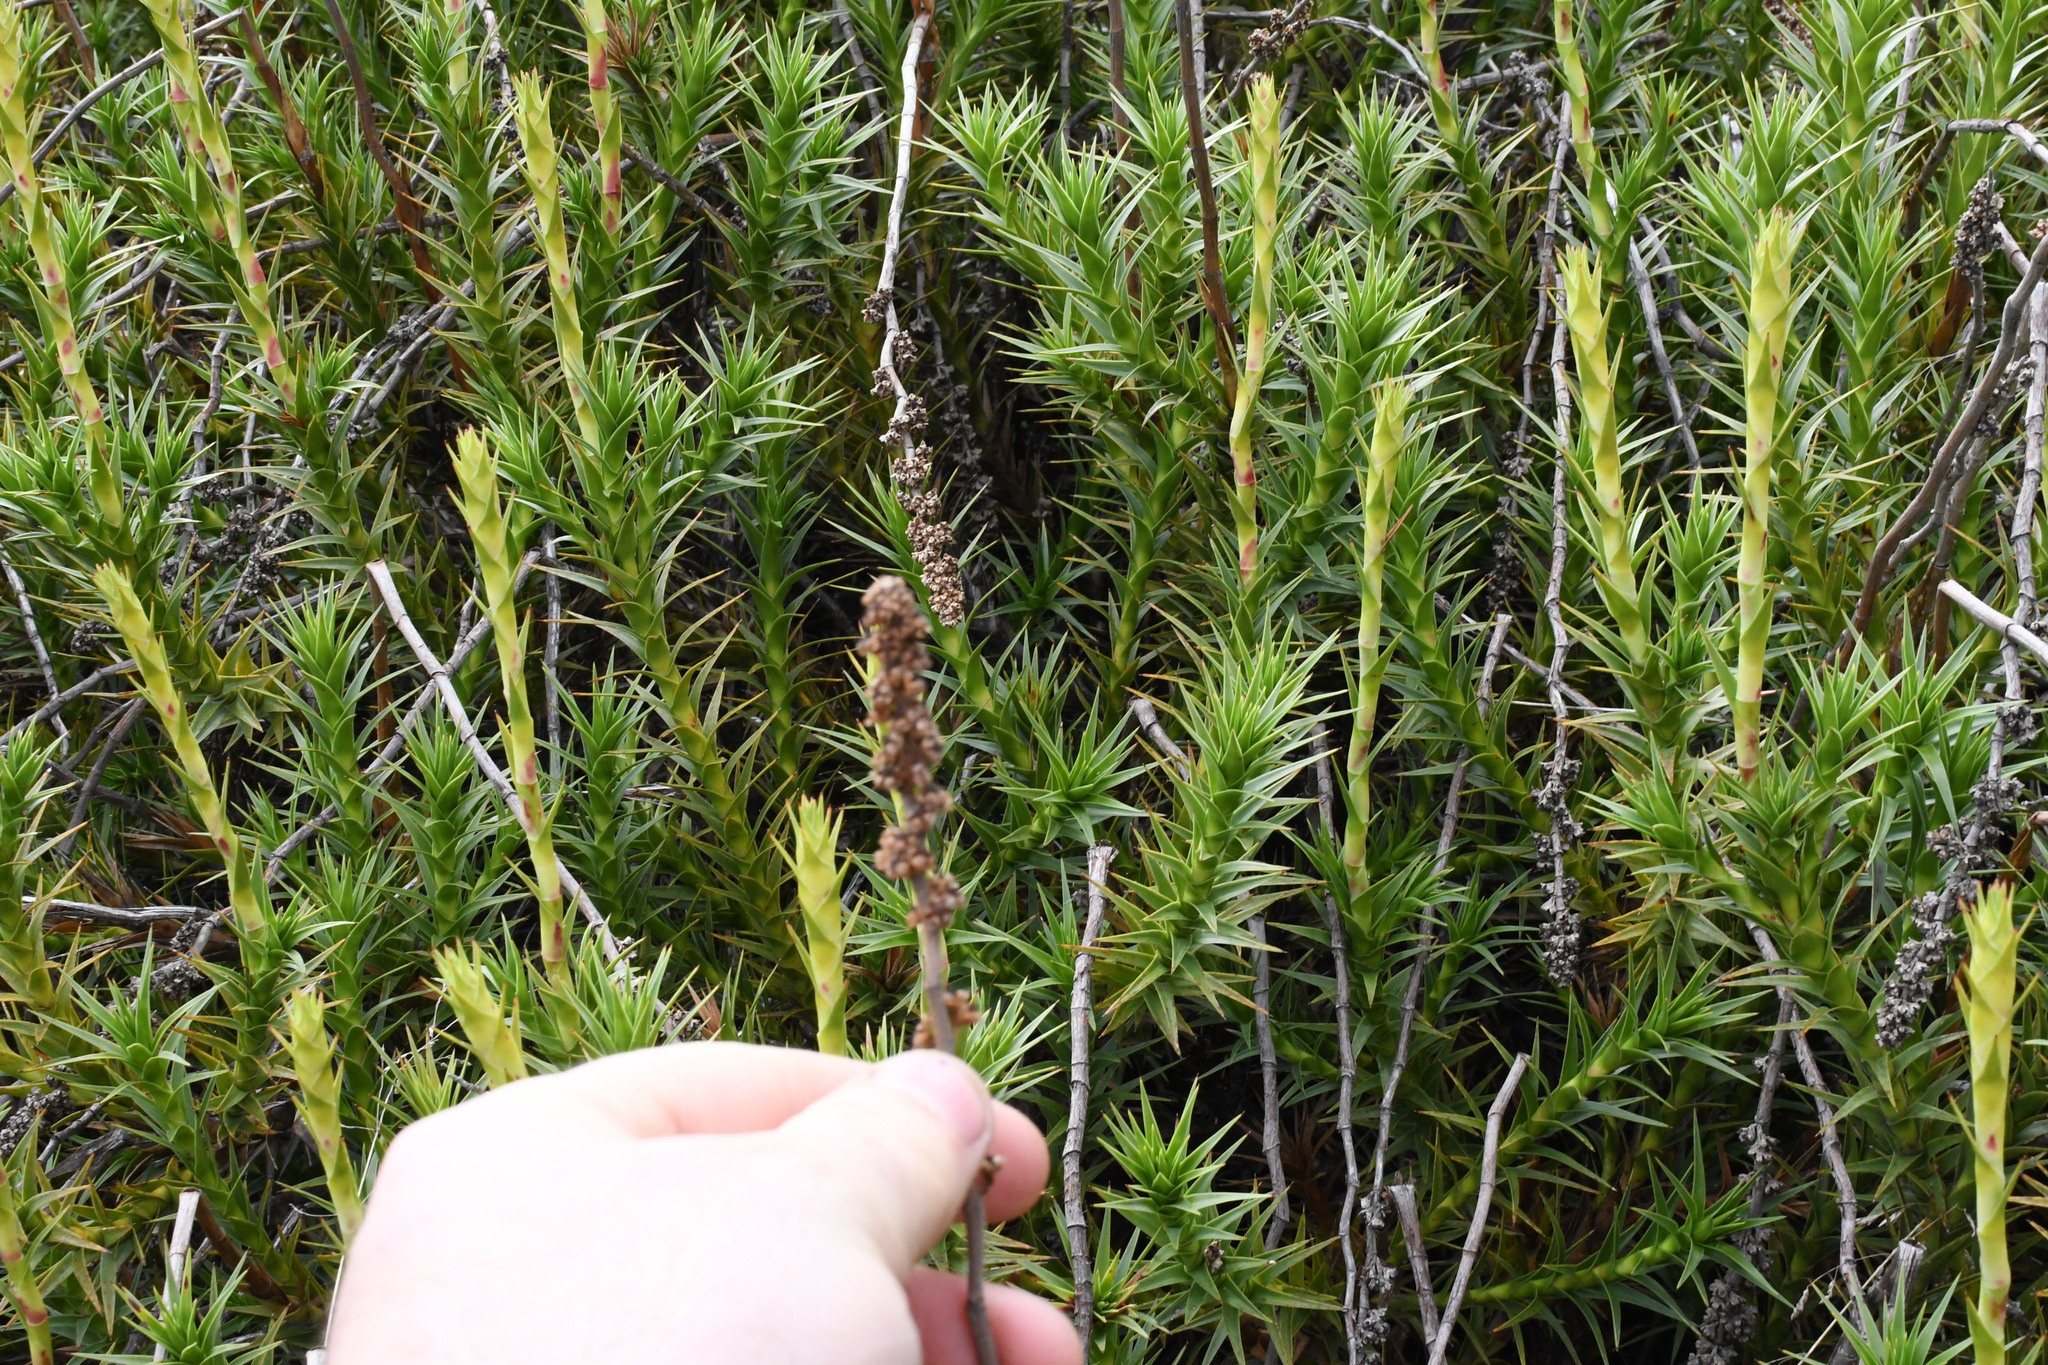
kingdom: Plantae
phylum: Tracheophyta
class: Magnoliopsida
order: Ericales
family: Ericaceae
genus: Dracophyllum
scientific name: Dracophyllum continentis
